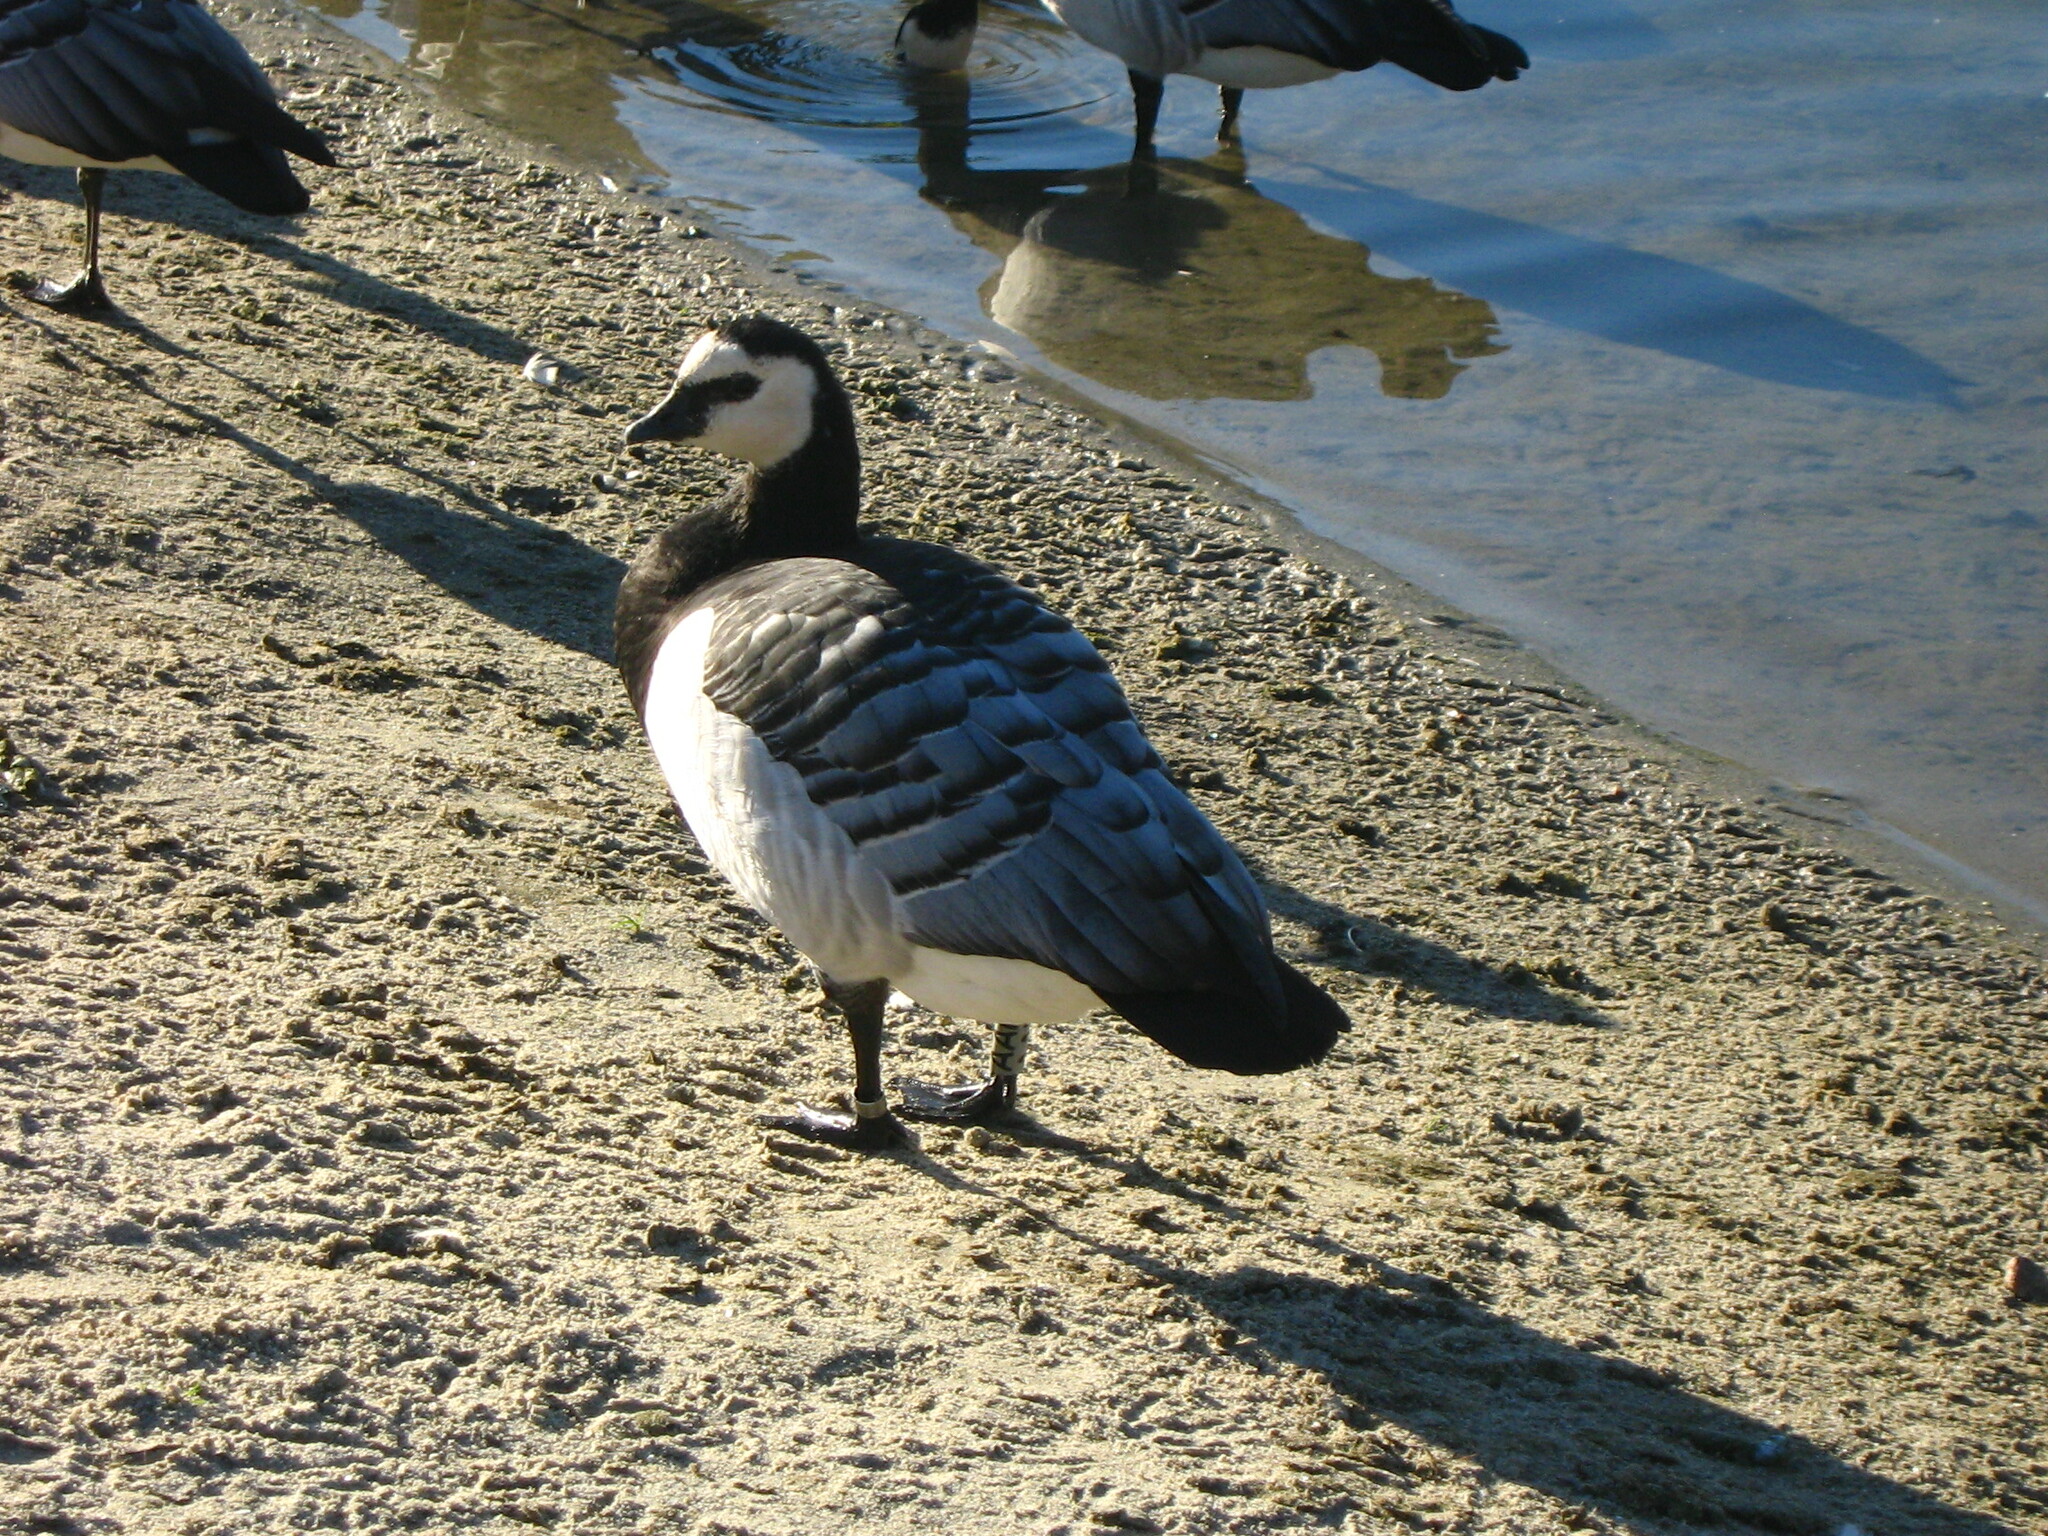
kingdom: Animalia
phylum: Chordata
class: Aves
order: Anseriformes
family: Anatidae
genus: Branta
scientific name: Branta leucopsis
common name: Barnacle goose
